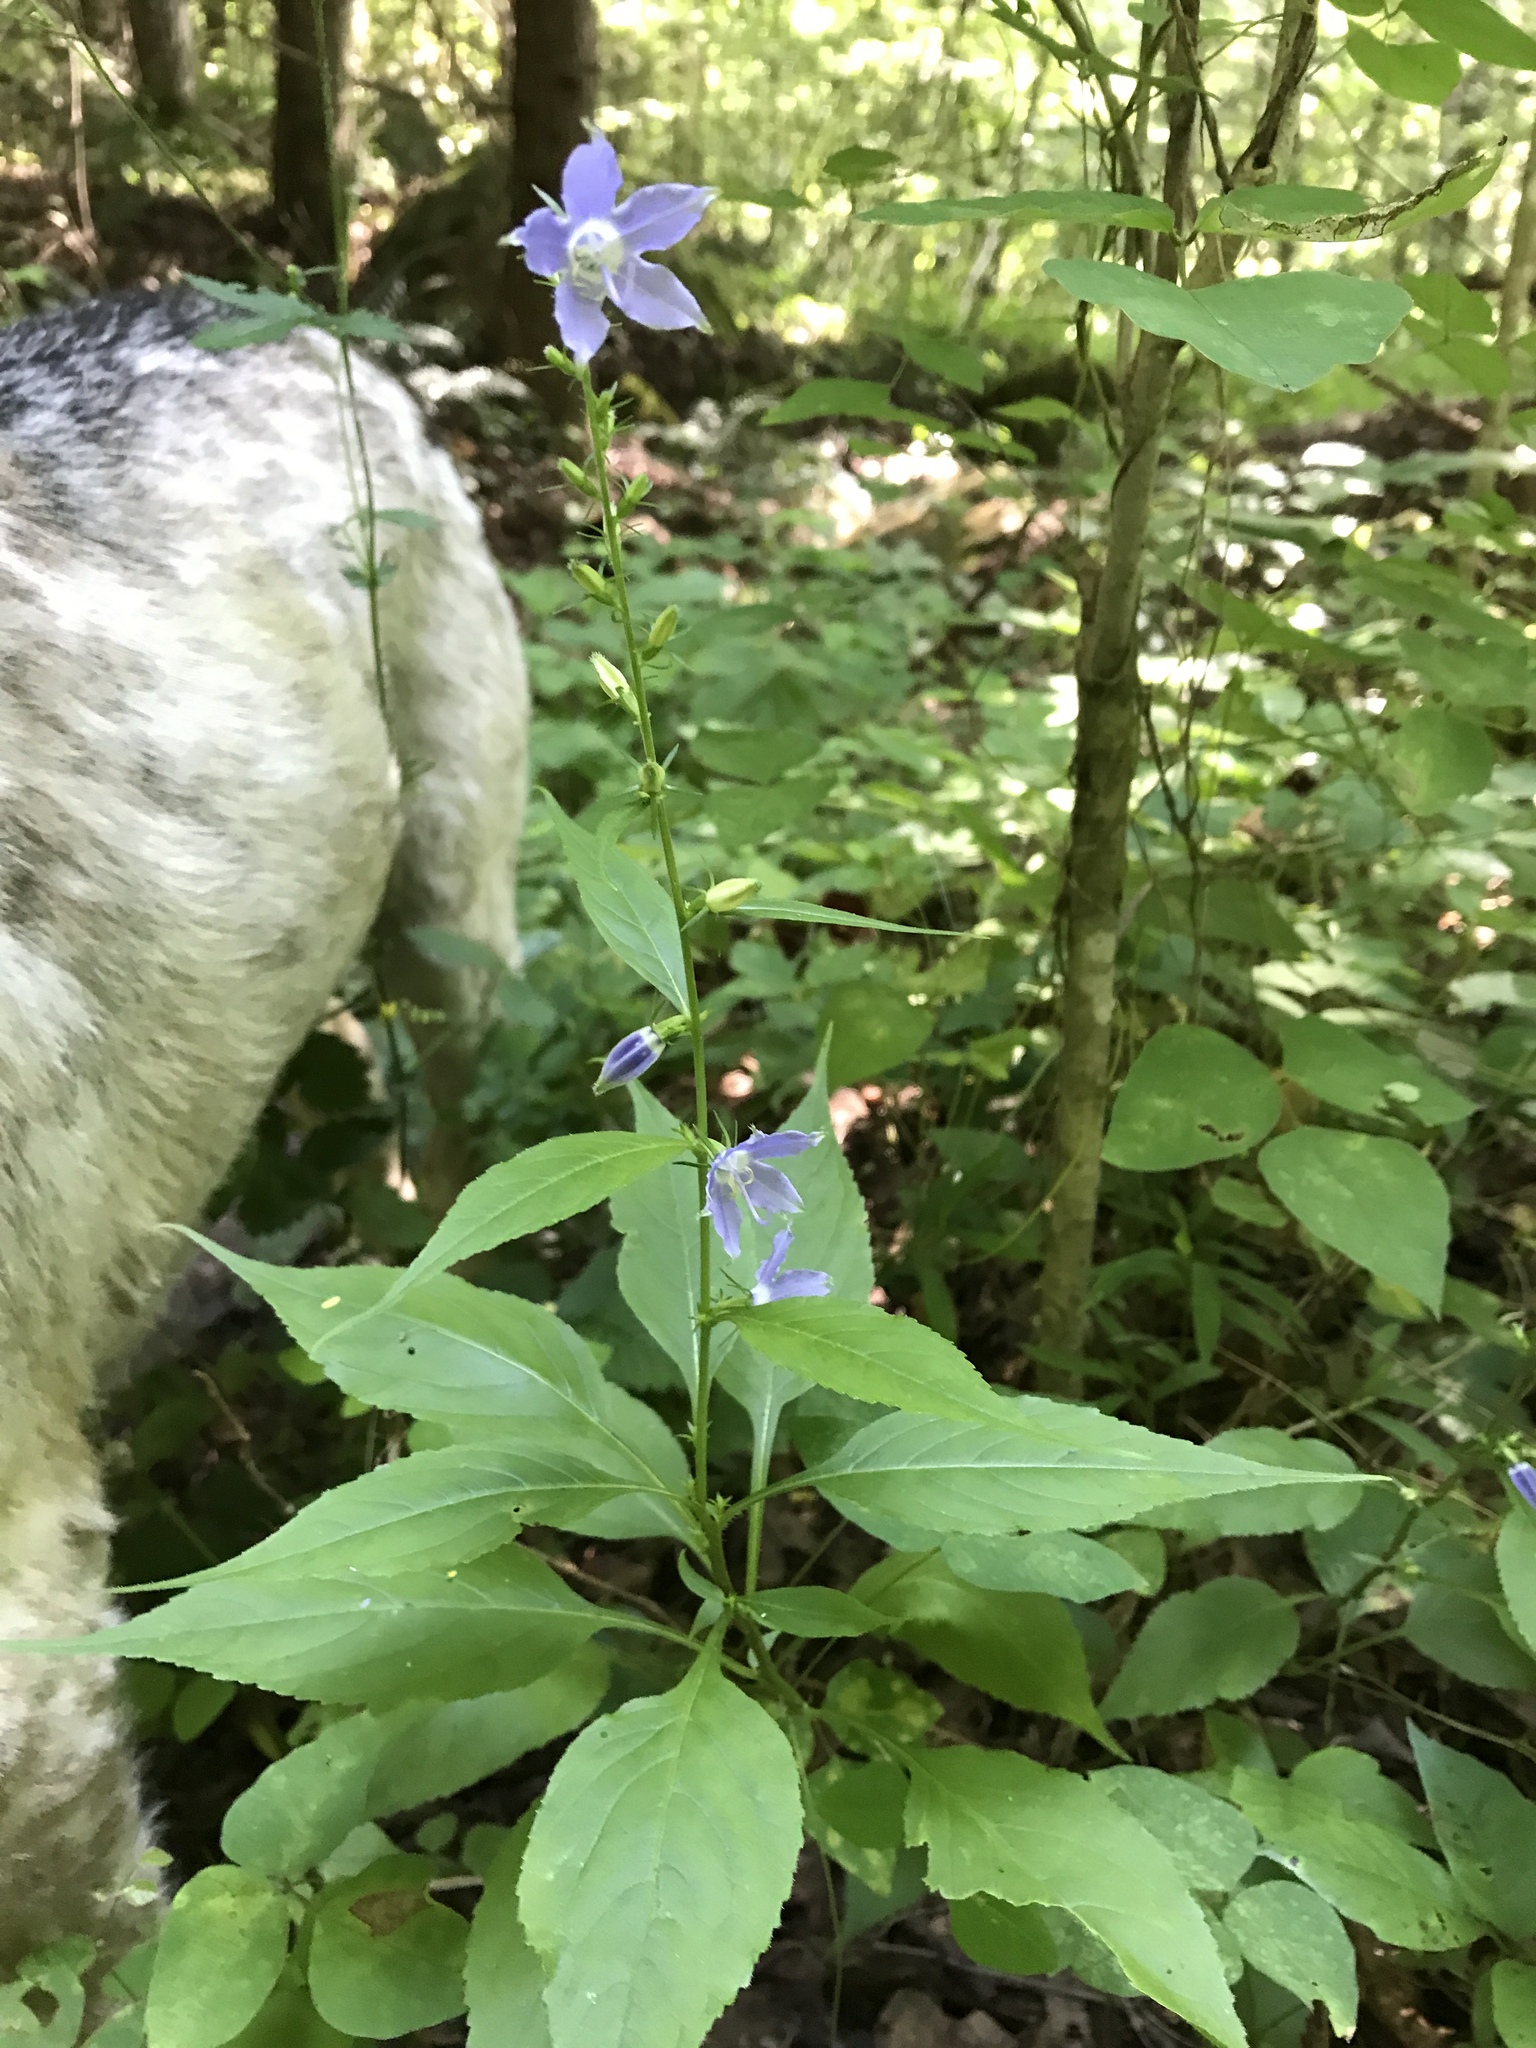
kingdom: Plantae
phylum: Tracheophyta
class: Magnoliopsida
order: Asterales
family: Campanulaceae
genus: Campanulastrum
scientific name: Campanulastrum americanum
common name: American bellflower
